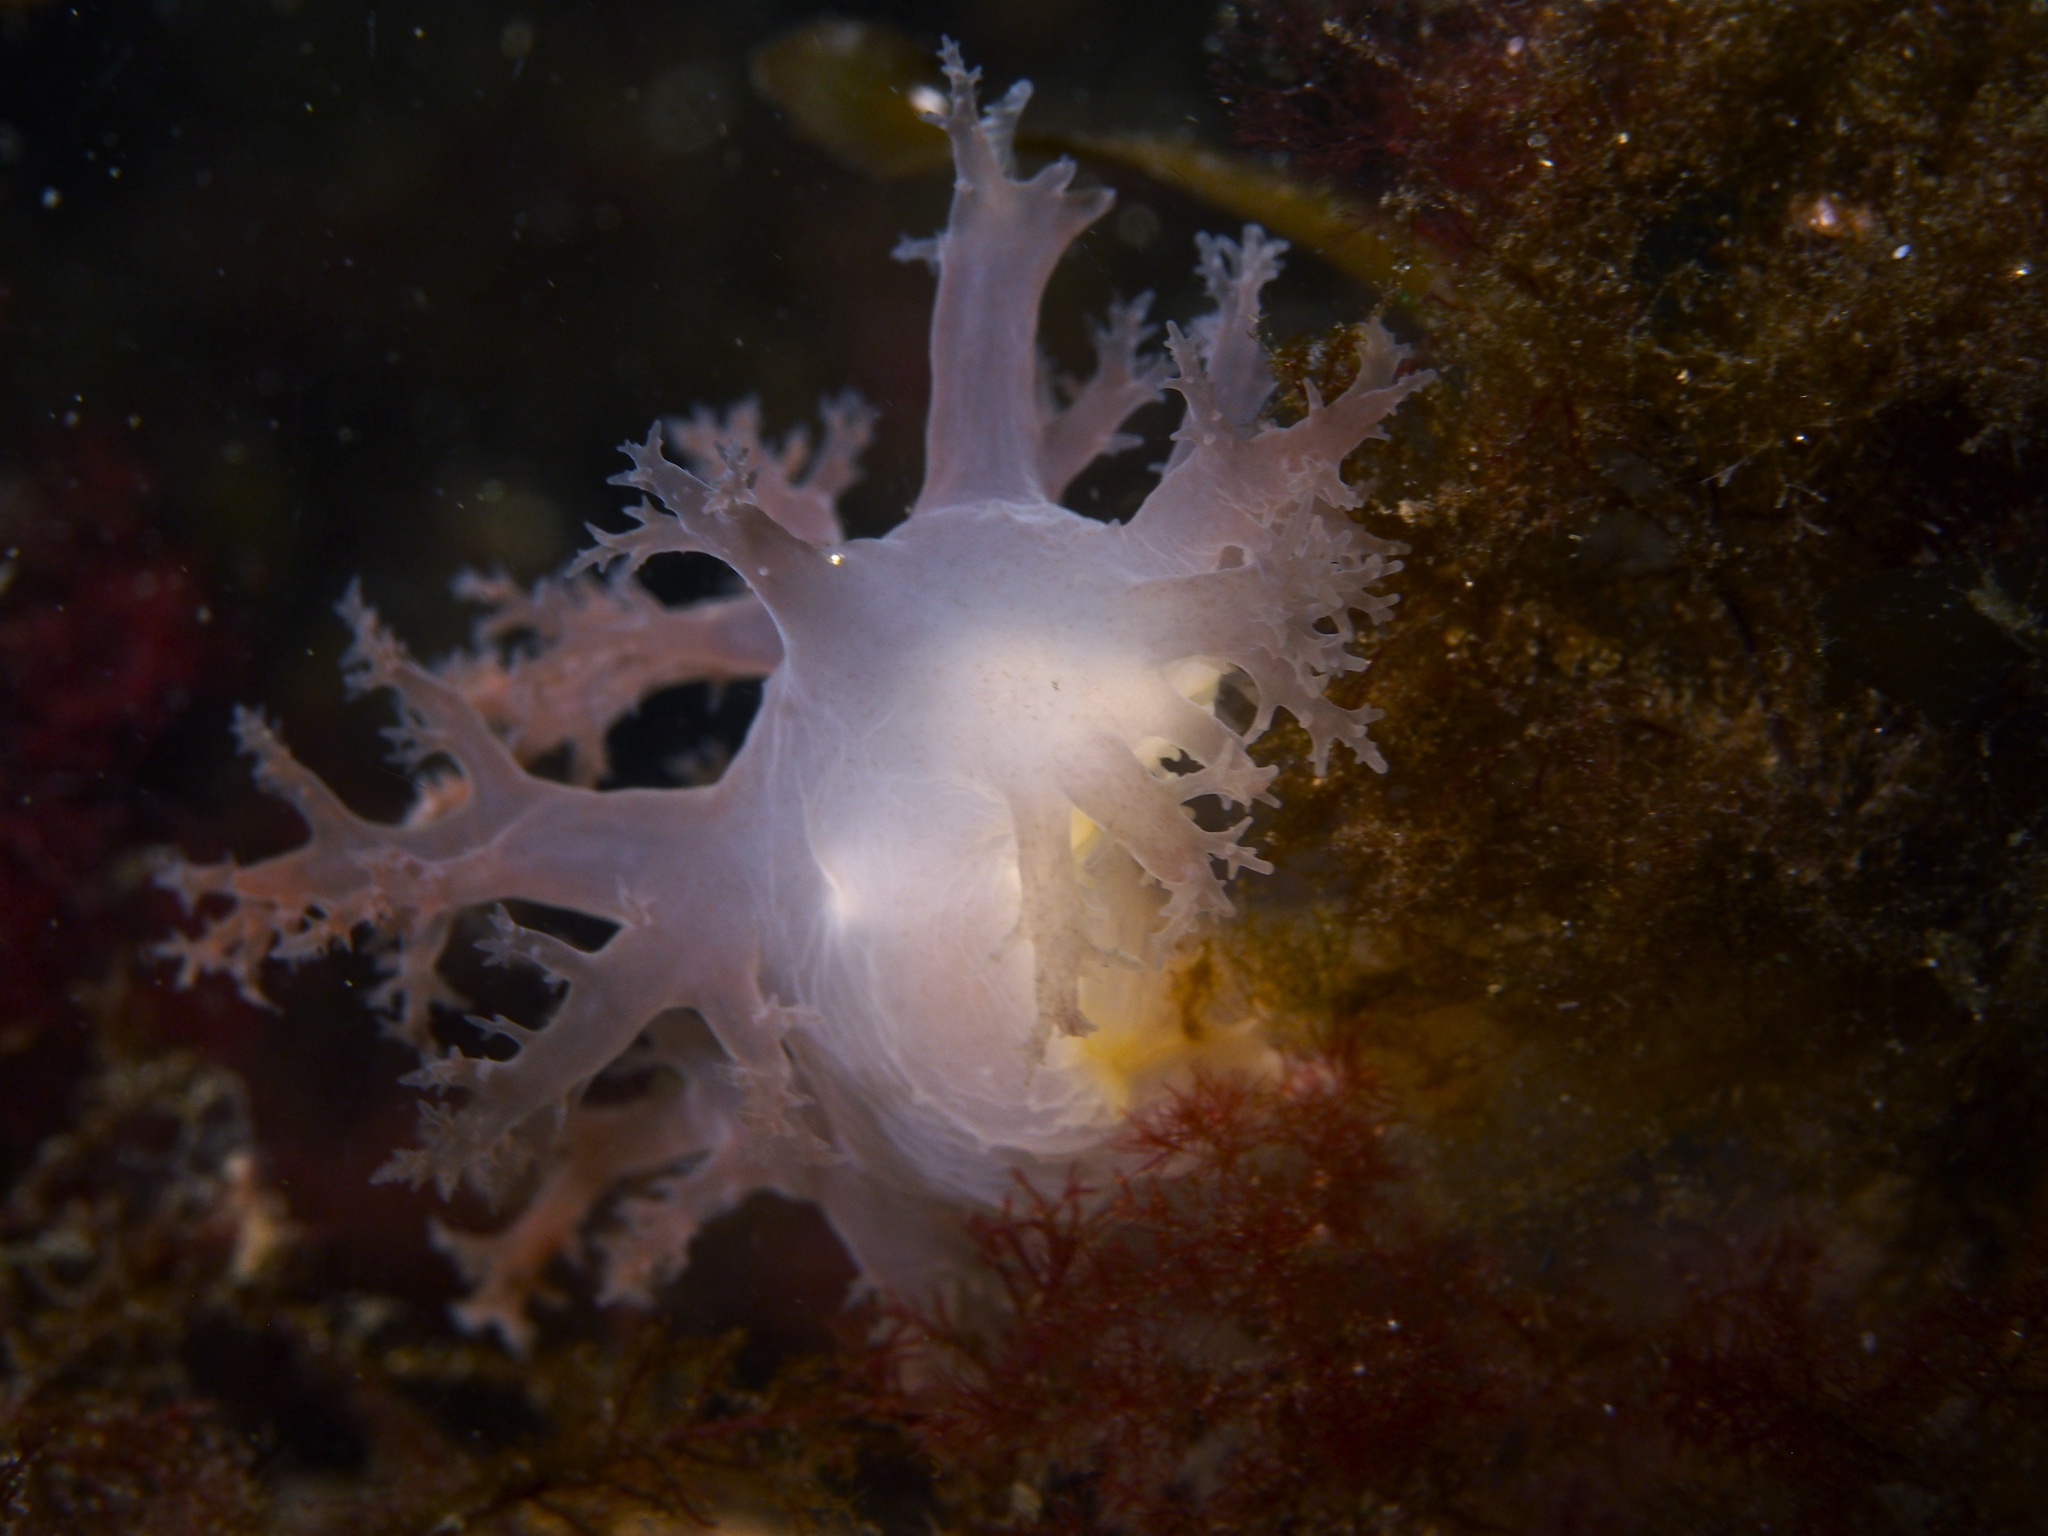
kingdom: Animalia
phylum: Mollusca
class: Gastropoda
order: Nudibranchia
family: Dendronotidae
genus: Dendronotus
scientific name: Dendronotus lacteus
